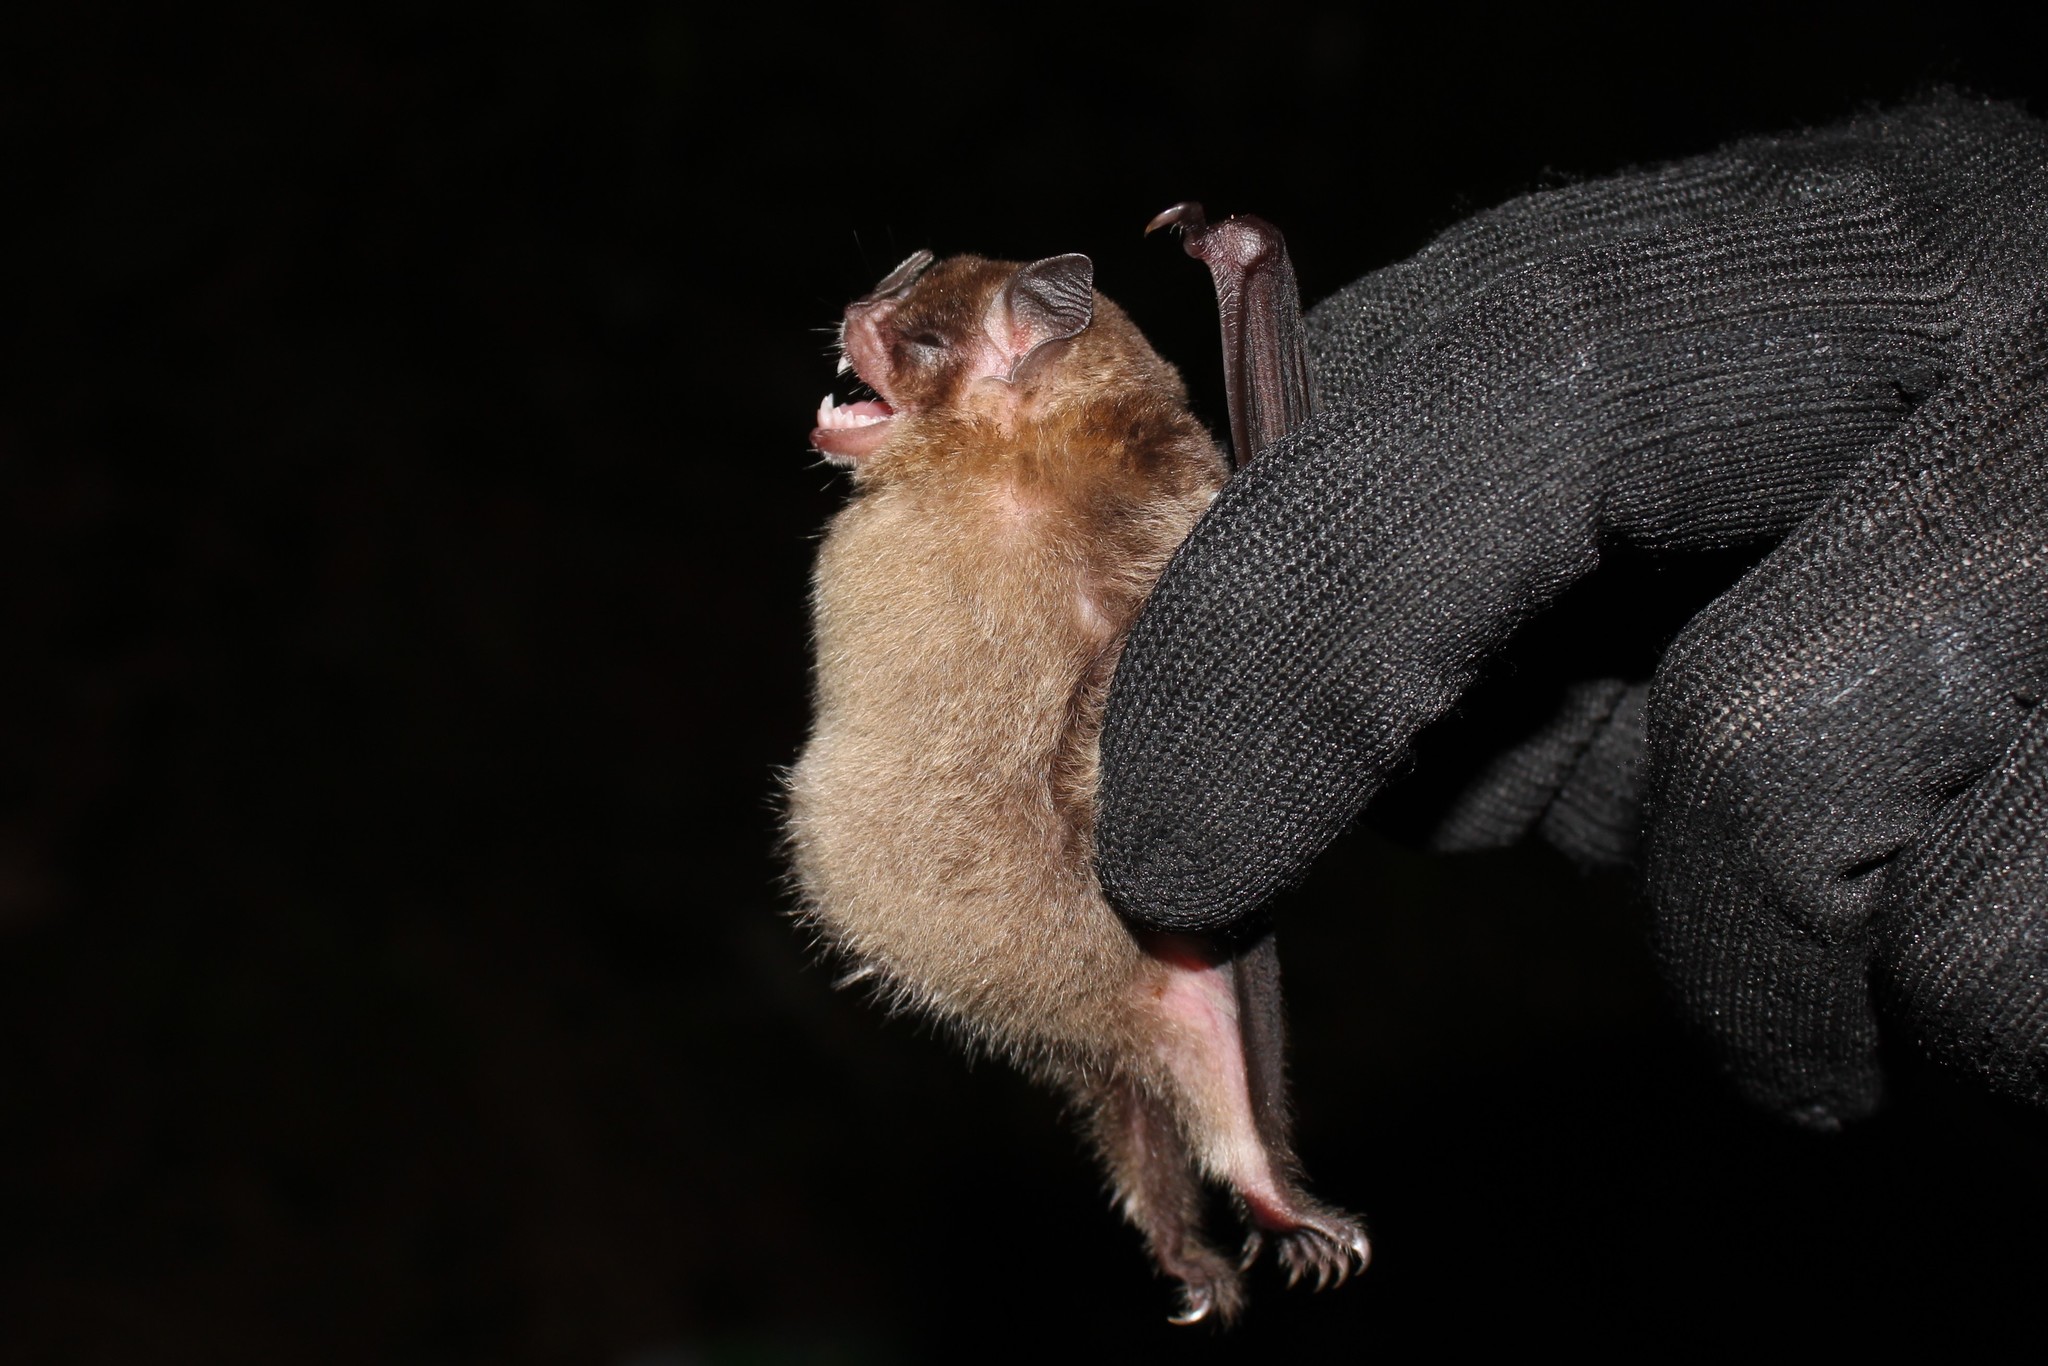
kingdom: Animalia
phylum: Chordata
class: Mammalia
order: Chiroptera
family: Phyllostomidae
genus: Sturnira
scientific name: Sturnira lilium
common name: Little yellow-shouldered bat
